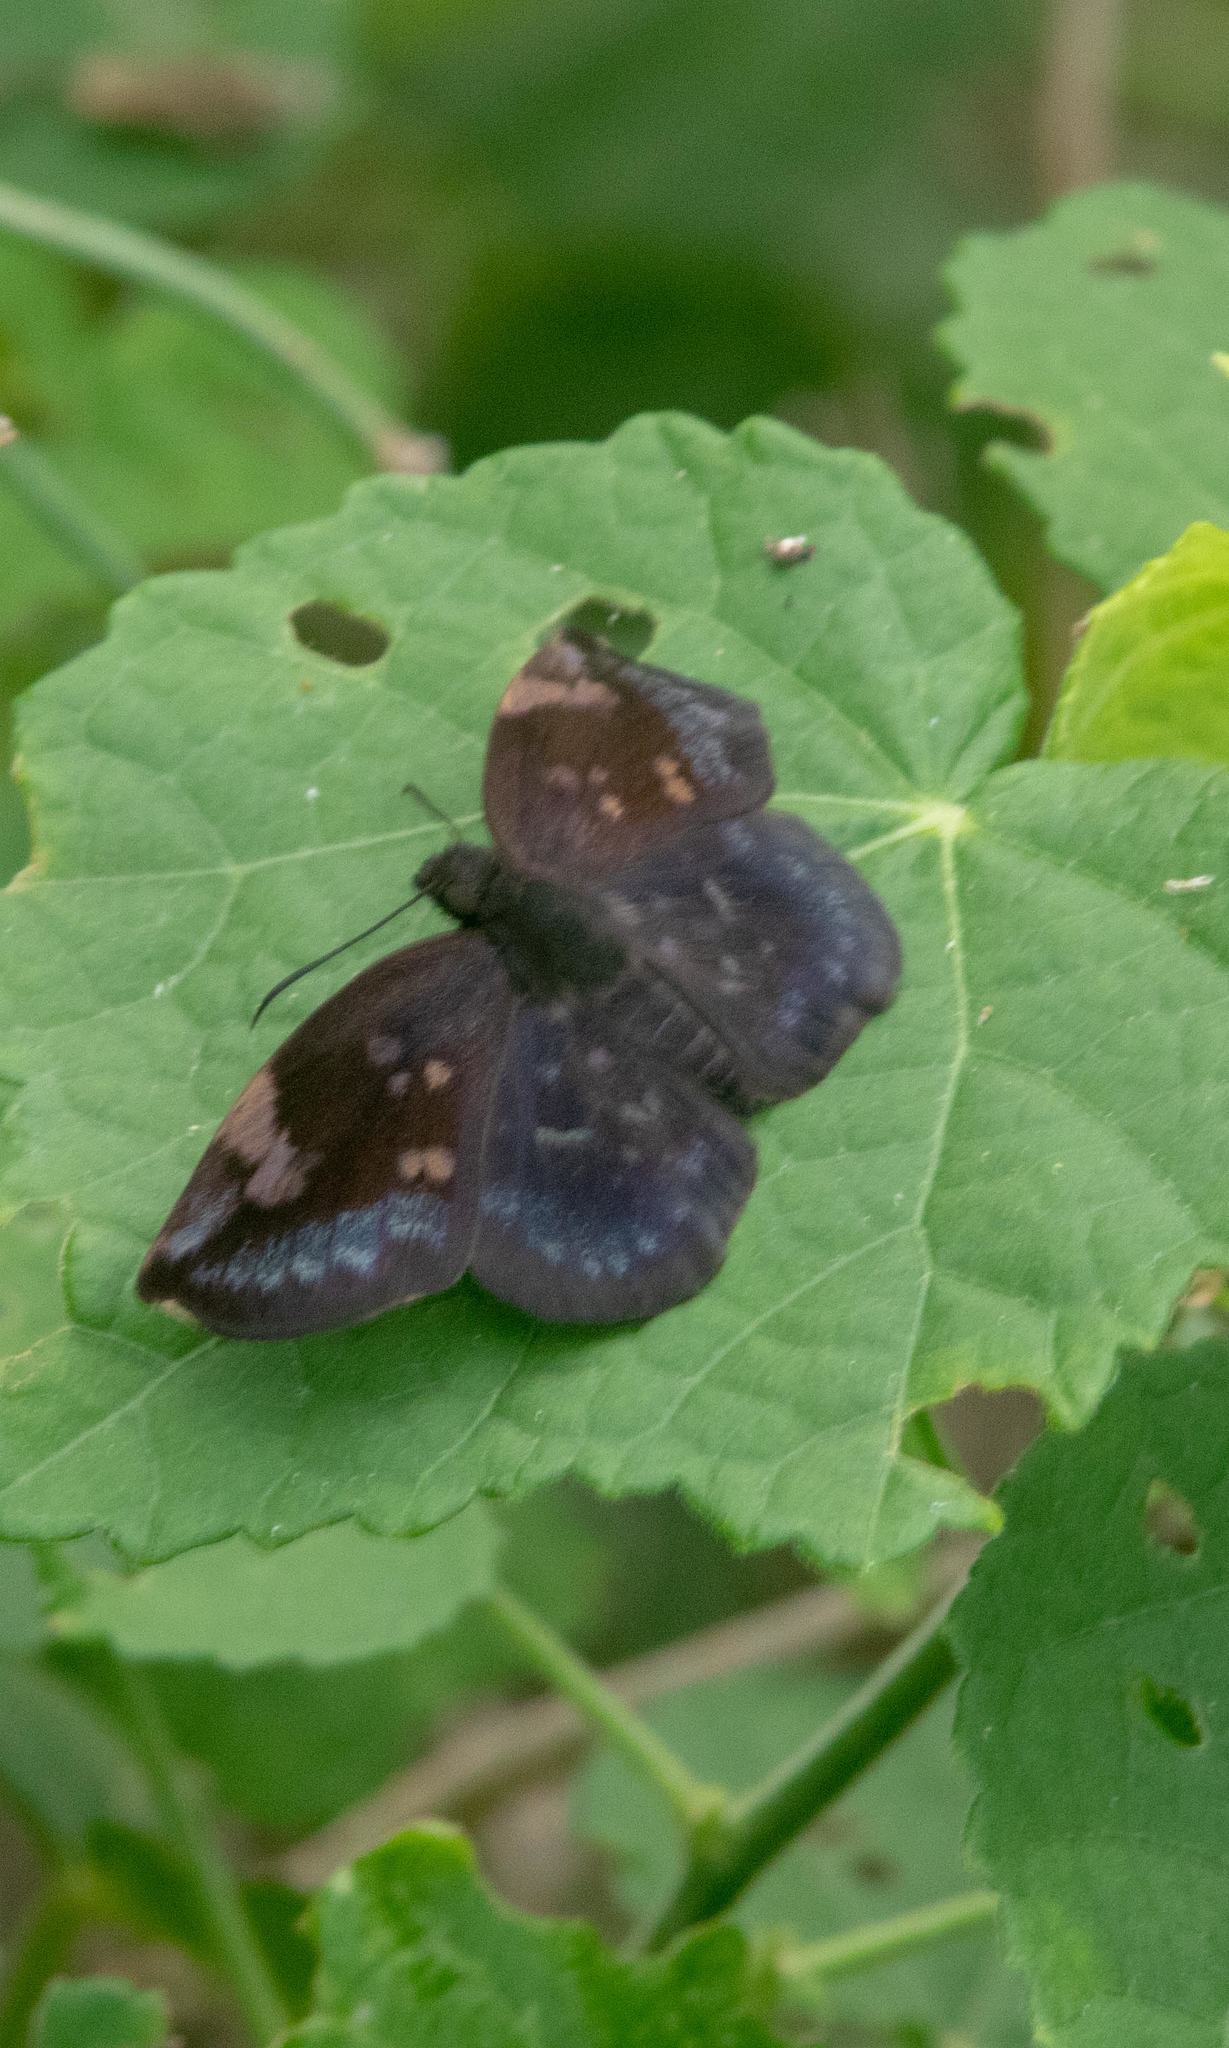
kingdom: Animalia
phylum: Arthropoda
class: Insecta
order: Lepidoptera
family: Hesperiidae
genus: Achlyodes
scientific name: Achlyodes thraso
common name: Sickle-winged skipper
